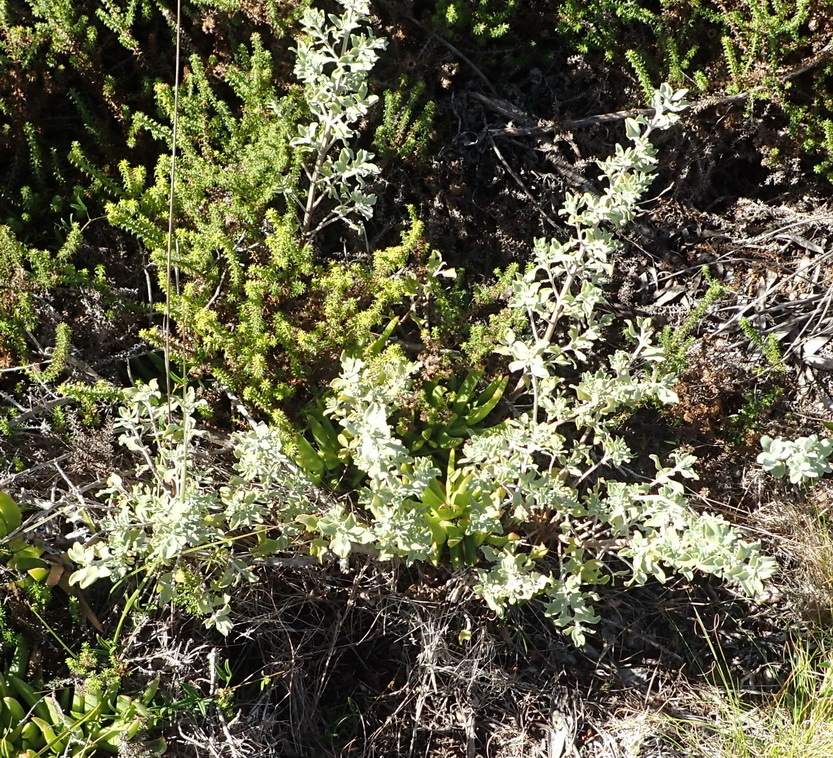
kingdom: Plantae
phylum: Tracheophyta
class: Magnoliopsida
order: Lamiales
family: Lamiaceae
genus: Salvia
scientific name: Salvia aurea
